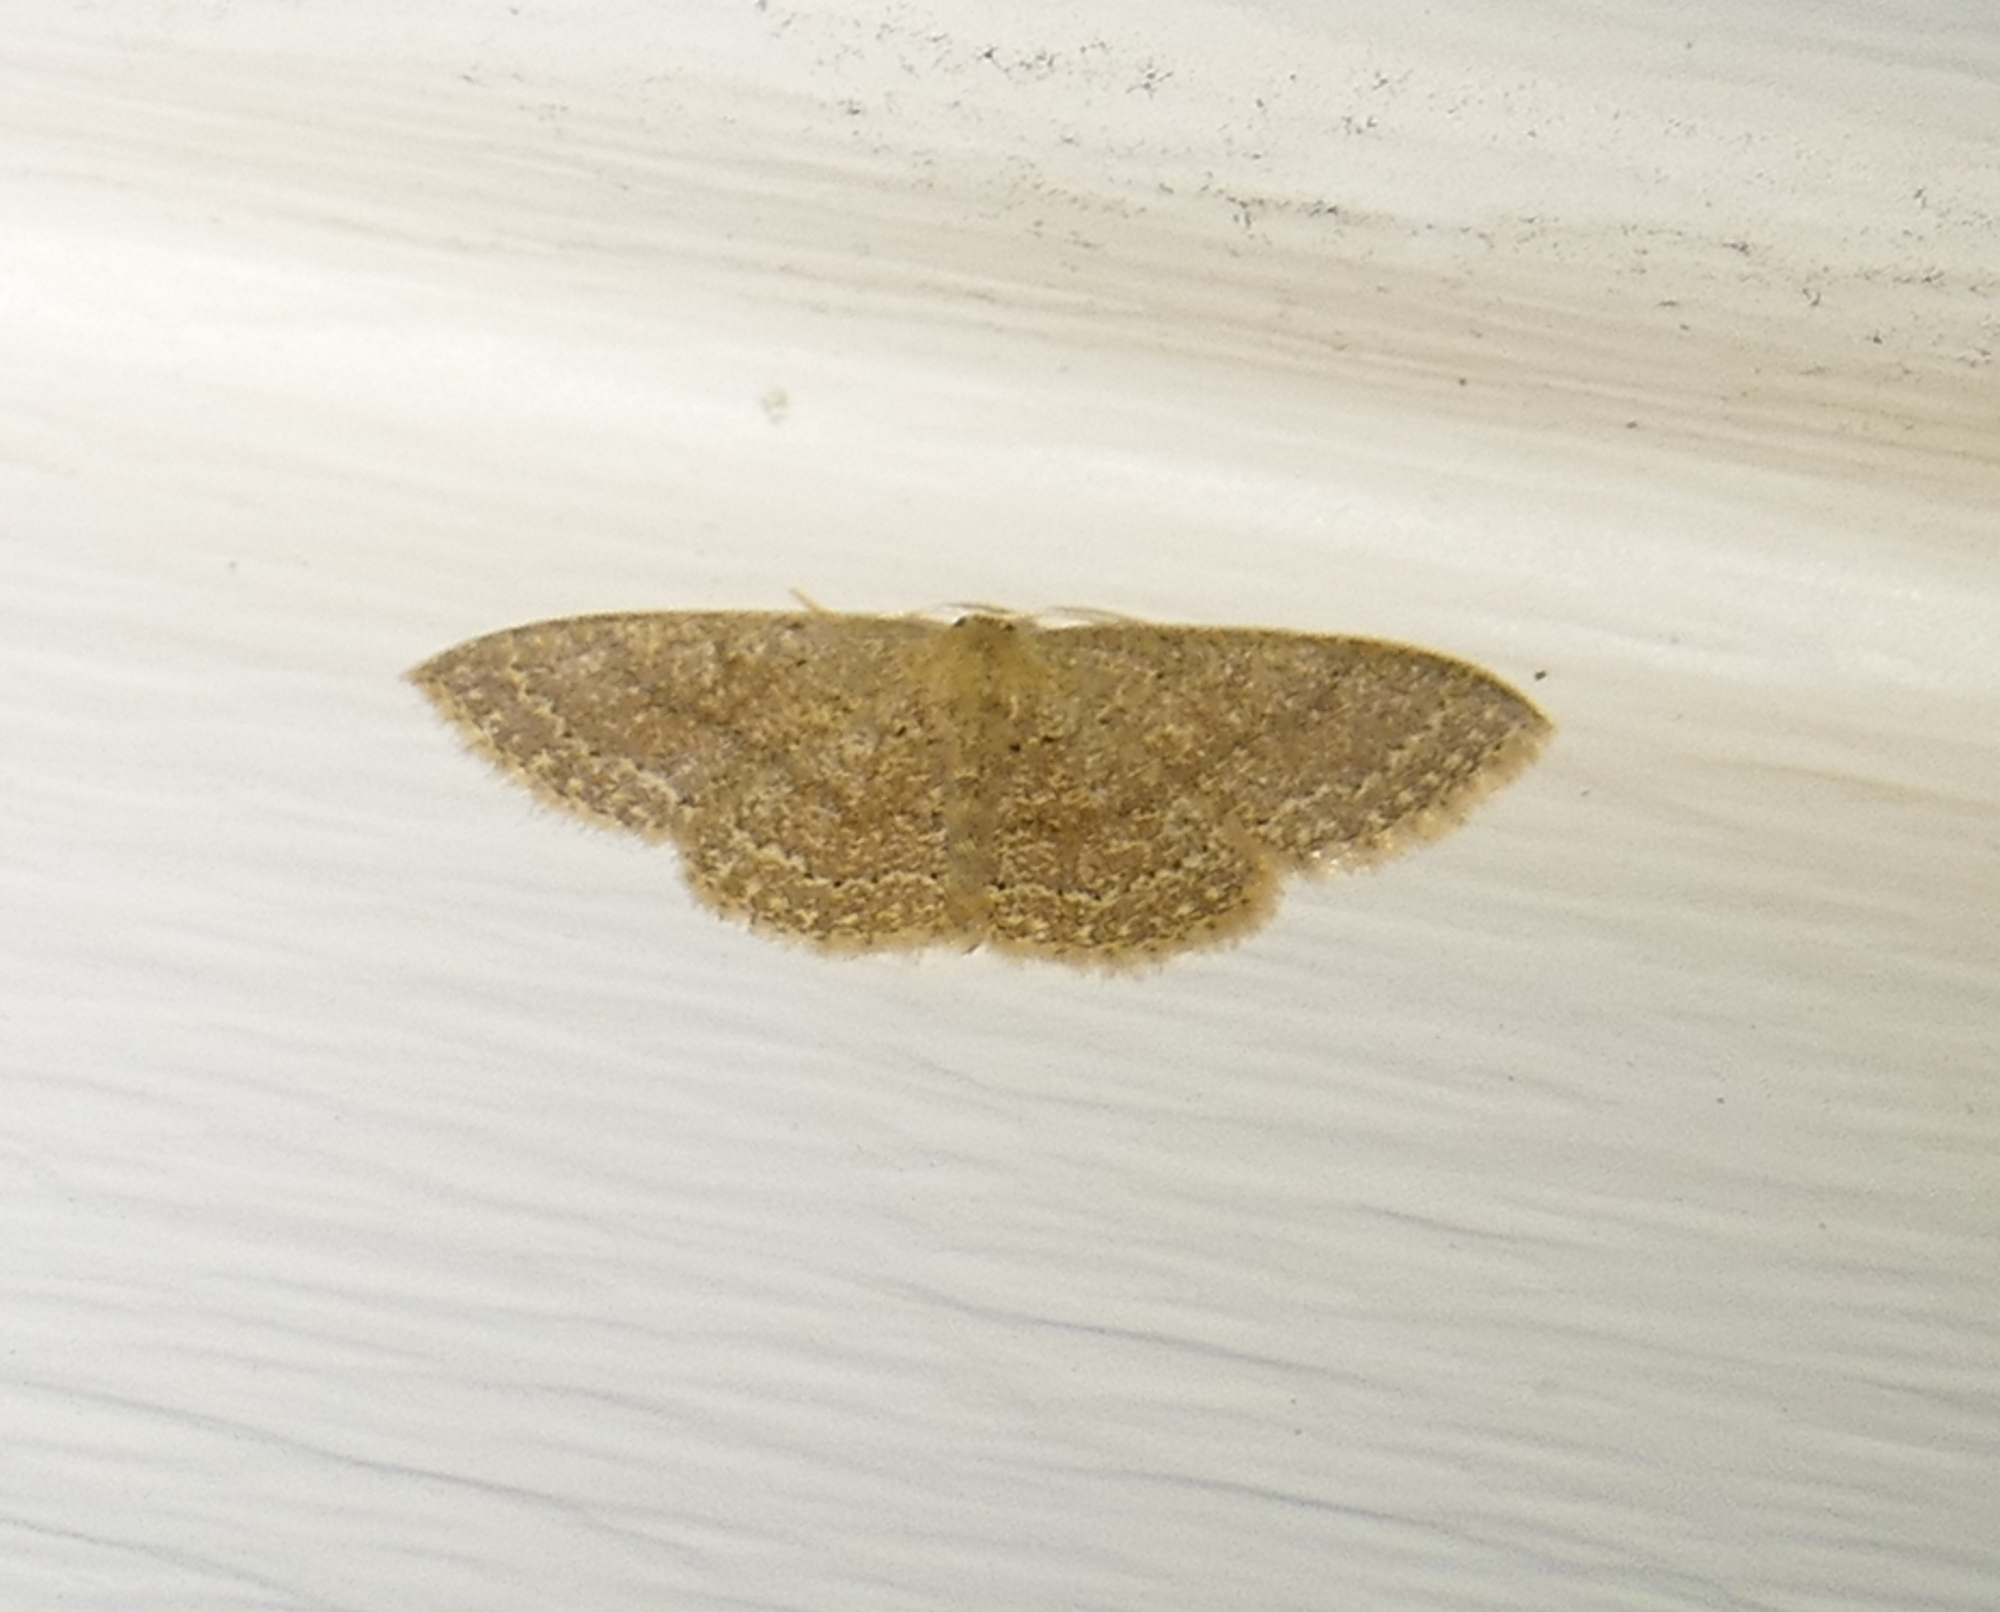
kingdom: Animalia
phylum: Arthropoda
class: Insecta
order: Lepidoptera
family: Geometridae
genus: Pleuroprucha
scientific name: Pleuroprucha insulsaria
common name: Common tan wave
